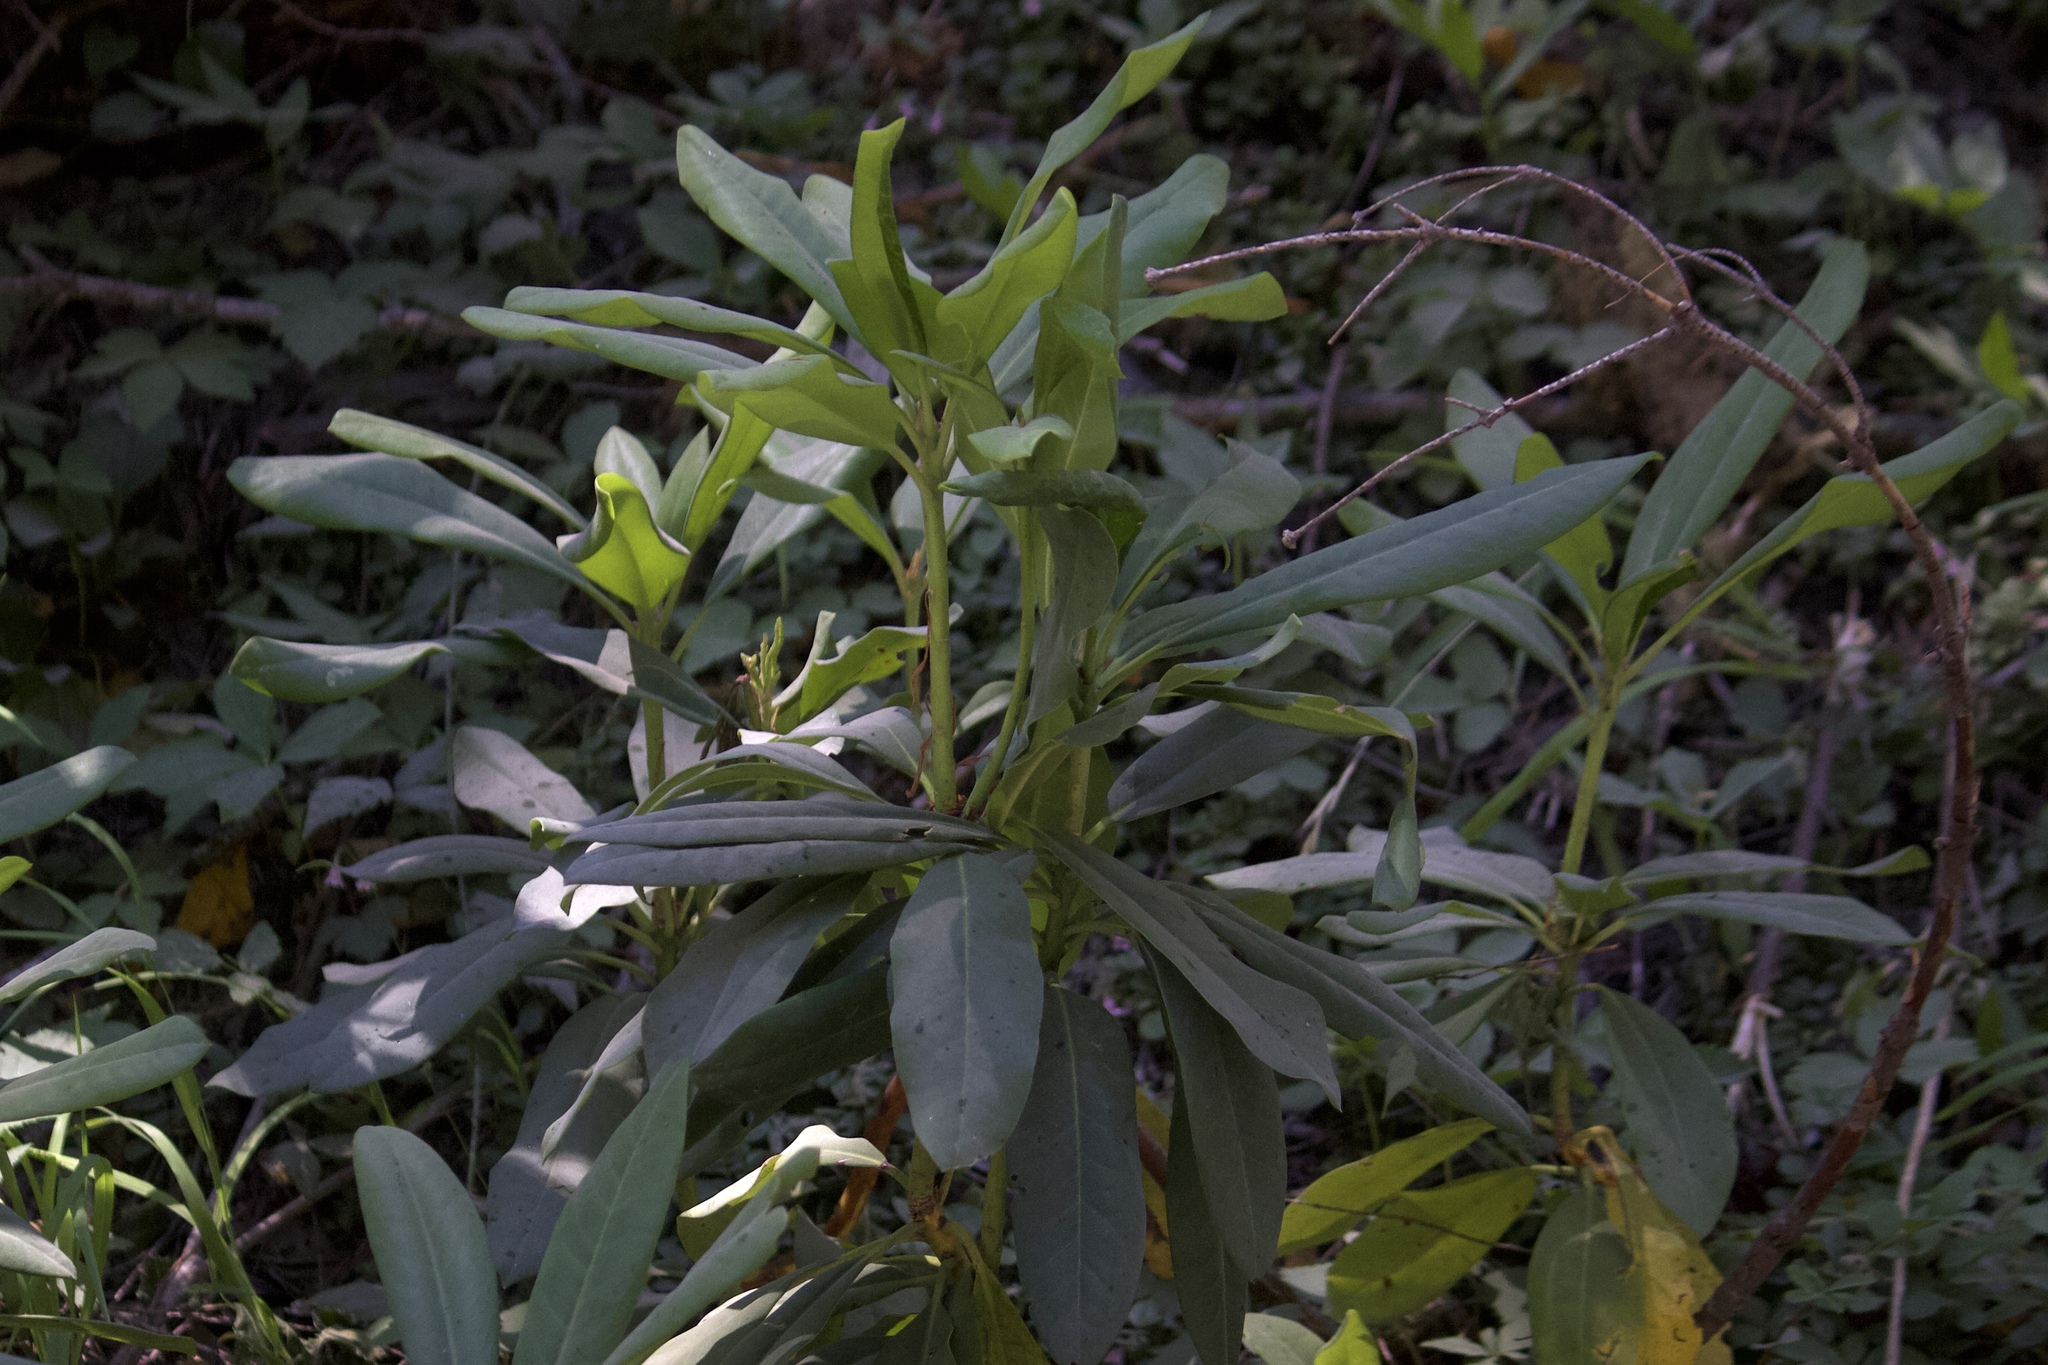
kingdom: Plantae
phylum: Tracheophyta
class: Magnoliopsida
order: Ericales
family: Ericaceae
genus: Rhododendron
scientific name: Rhododendron macrophyllum
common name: California rose bay
